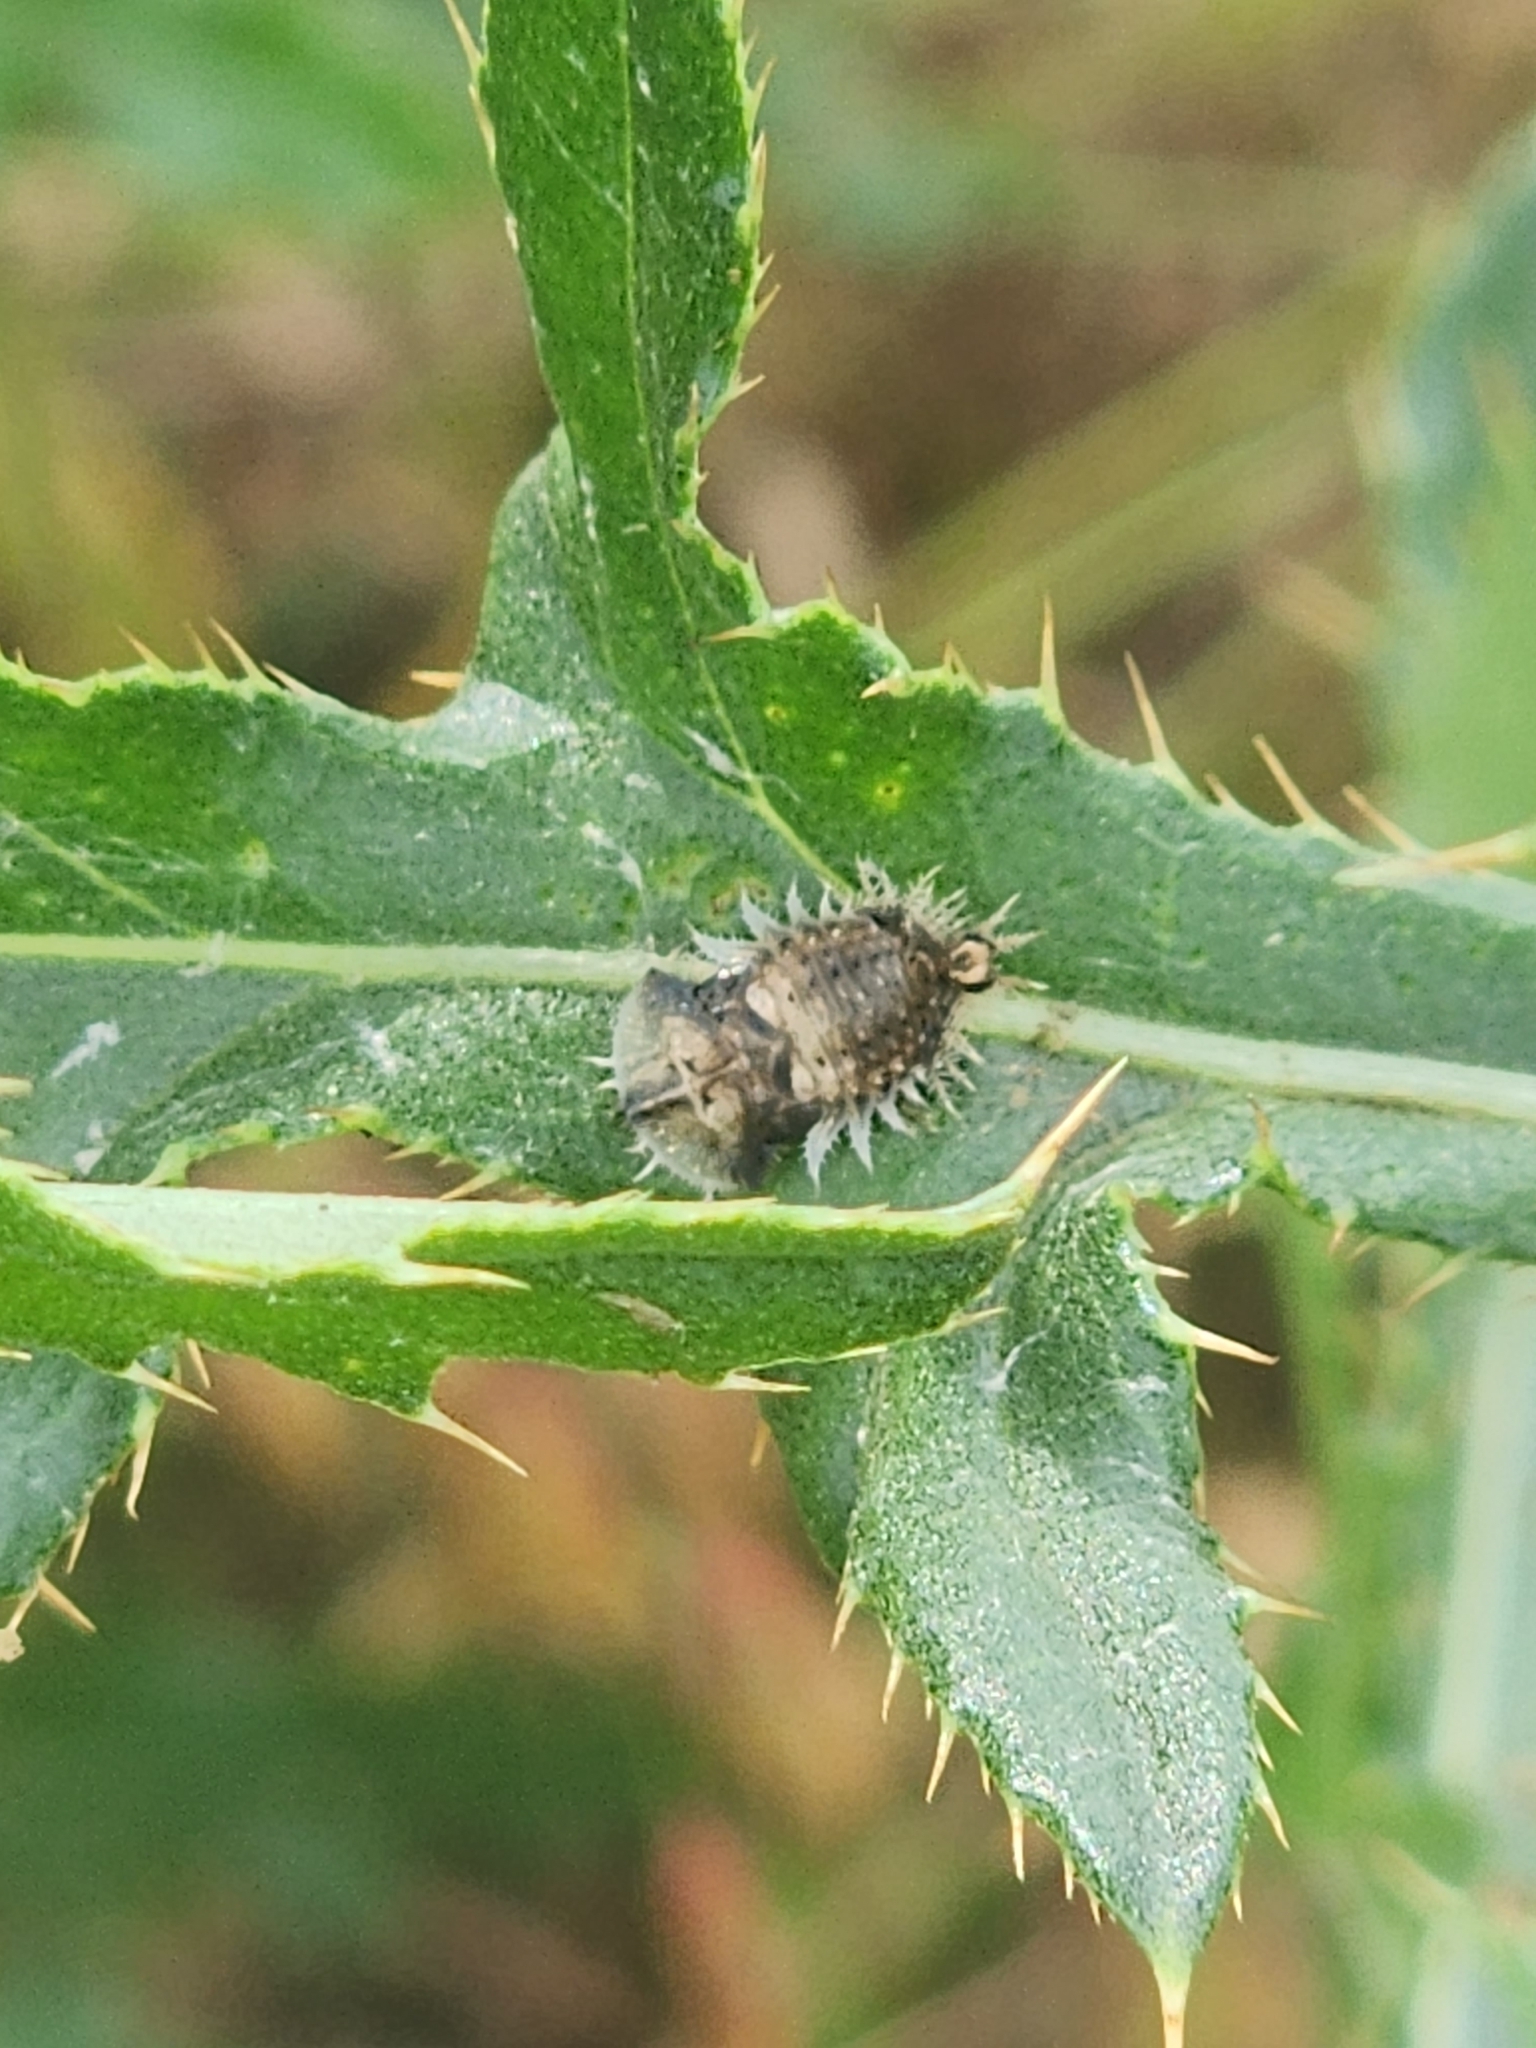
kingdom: Animalia
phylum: Arthropoda
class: Insecta
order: Coleoptera
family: Chrysomelidae
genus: Cassida
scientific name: Cassida rubiginosa
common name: Thistle tortoise beetle
